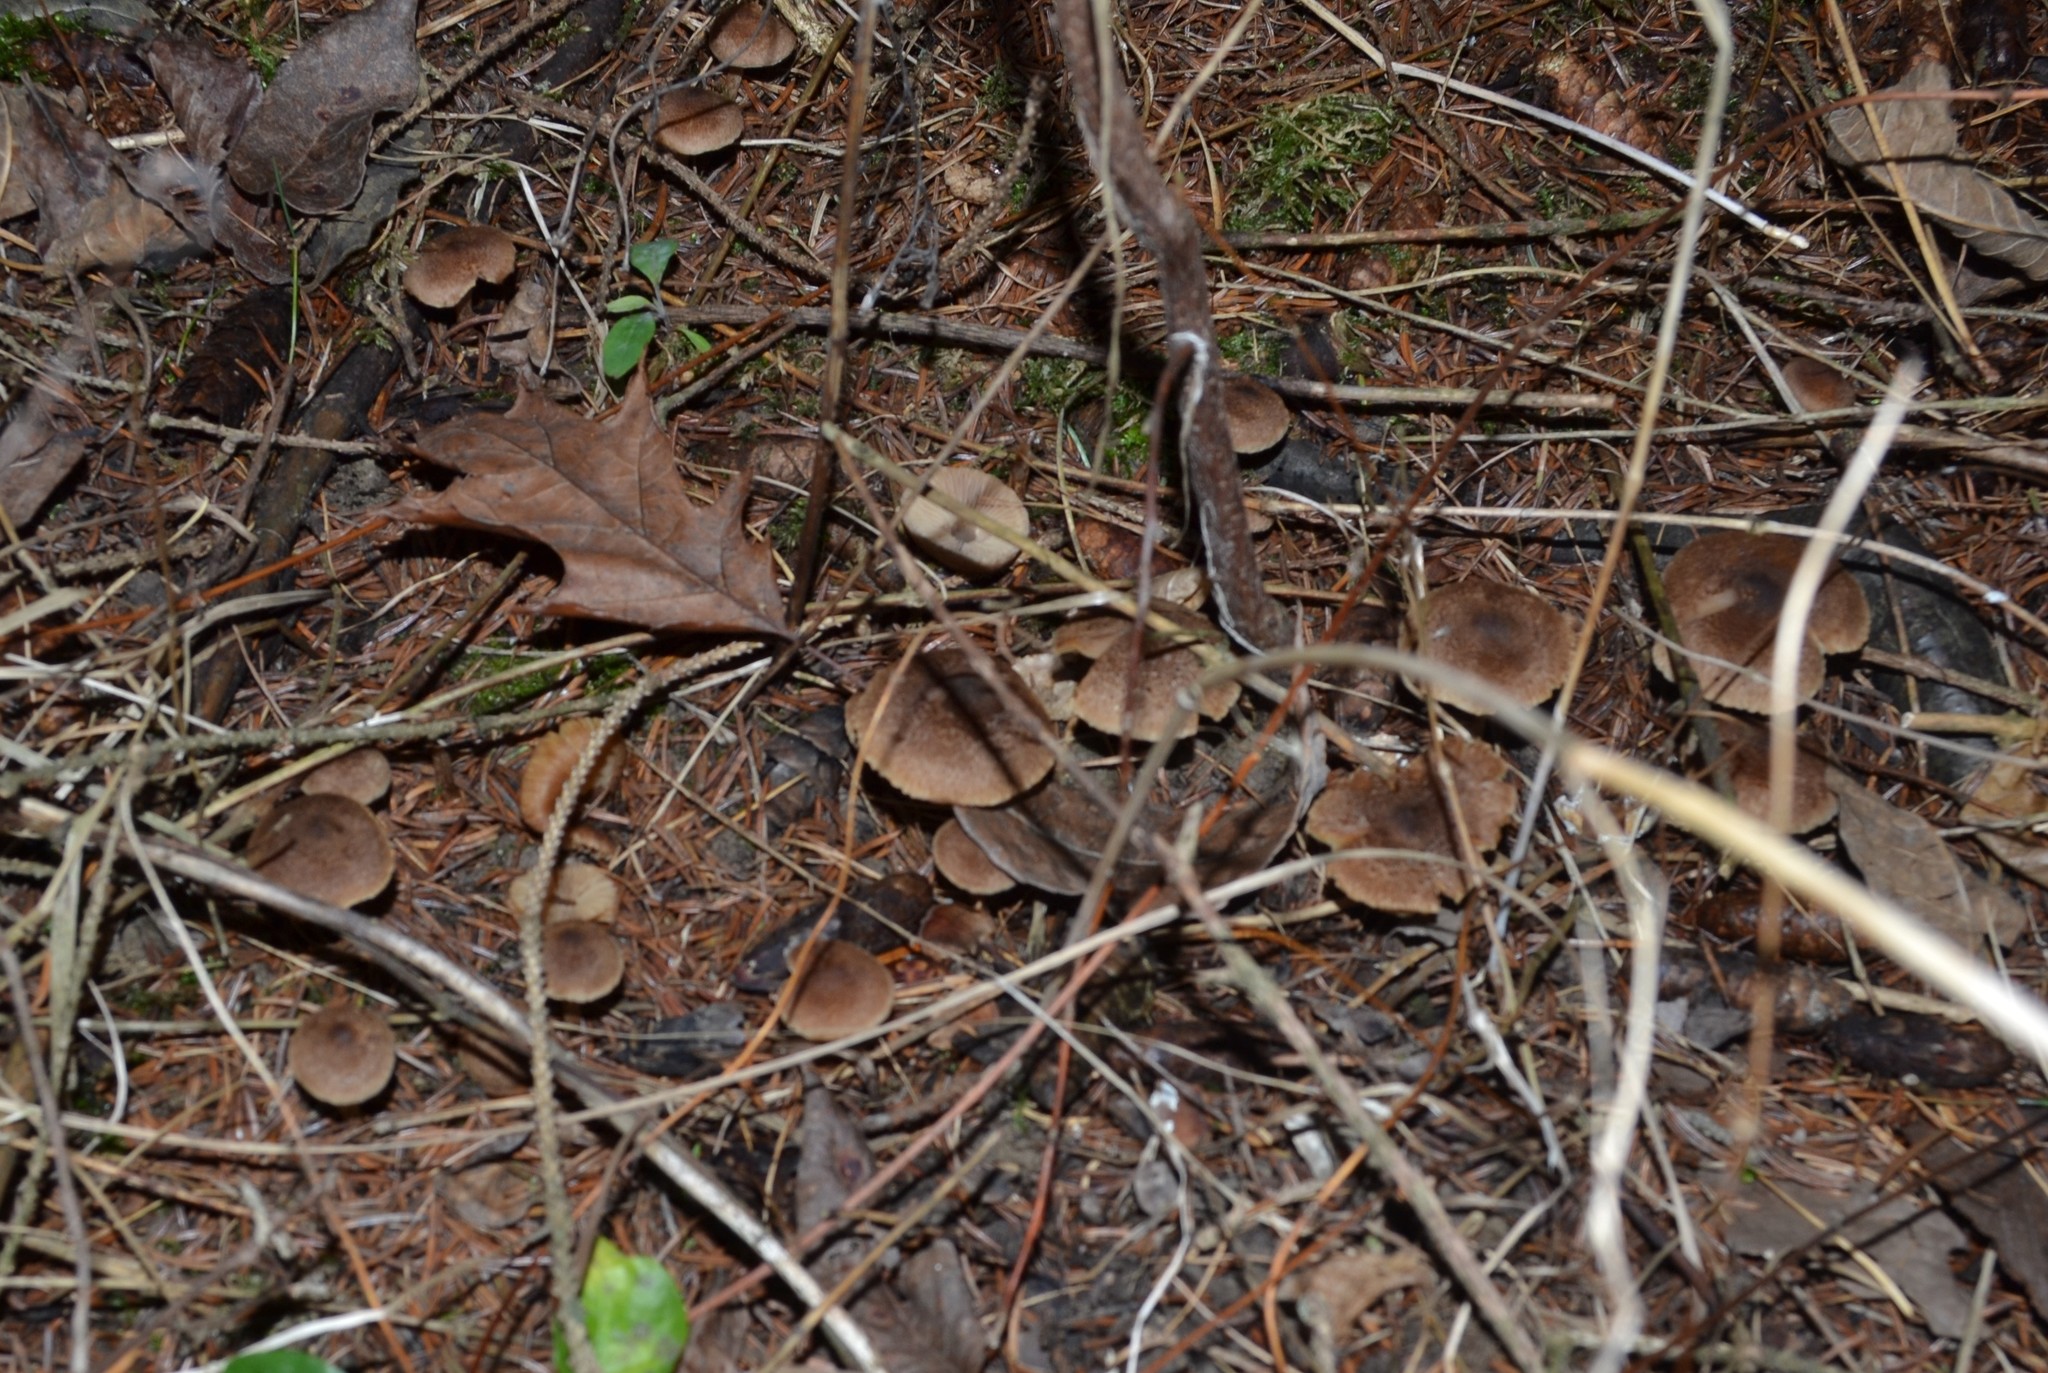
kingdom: Fungi
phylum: Basidiomycota
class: Agaricomycetes
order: Agaricales
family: Inocybaceae
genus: Inocybe
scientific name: Inocybe lacera
